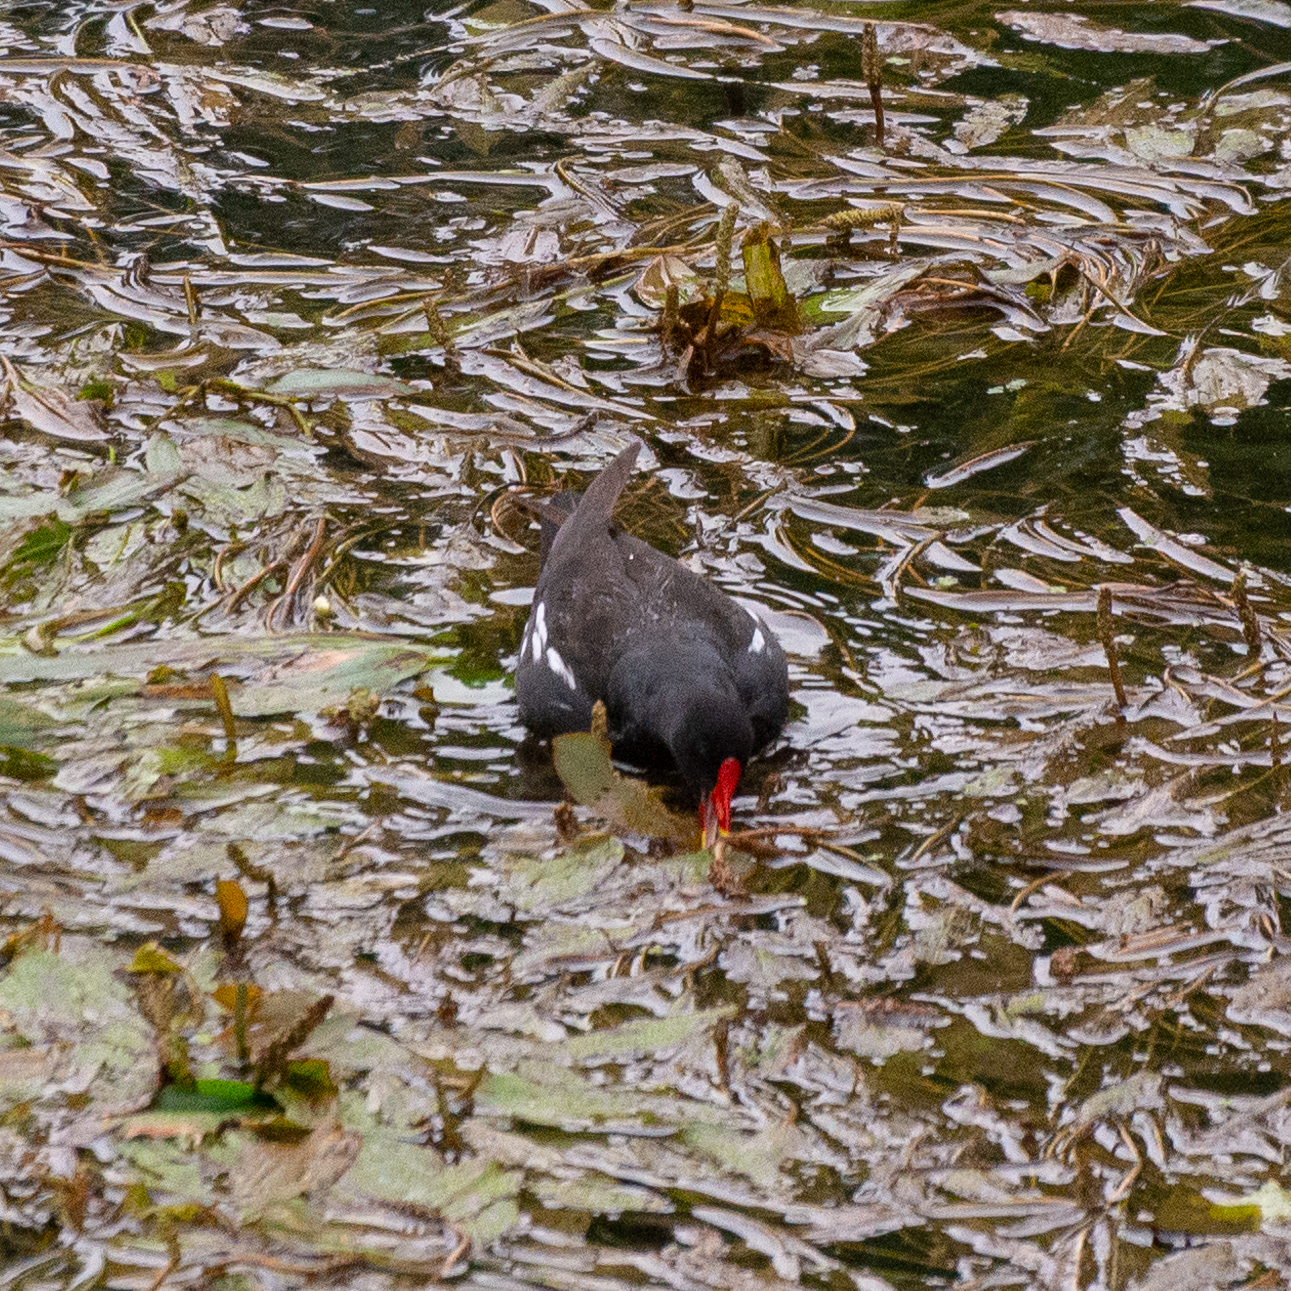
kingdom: Animalia
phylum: Chordata
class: Aves
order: Gruiformes
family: Rallidae
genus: Gallinula
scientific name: Gallinula chloropus
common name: Common moorhen
